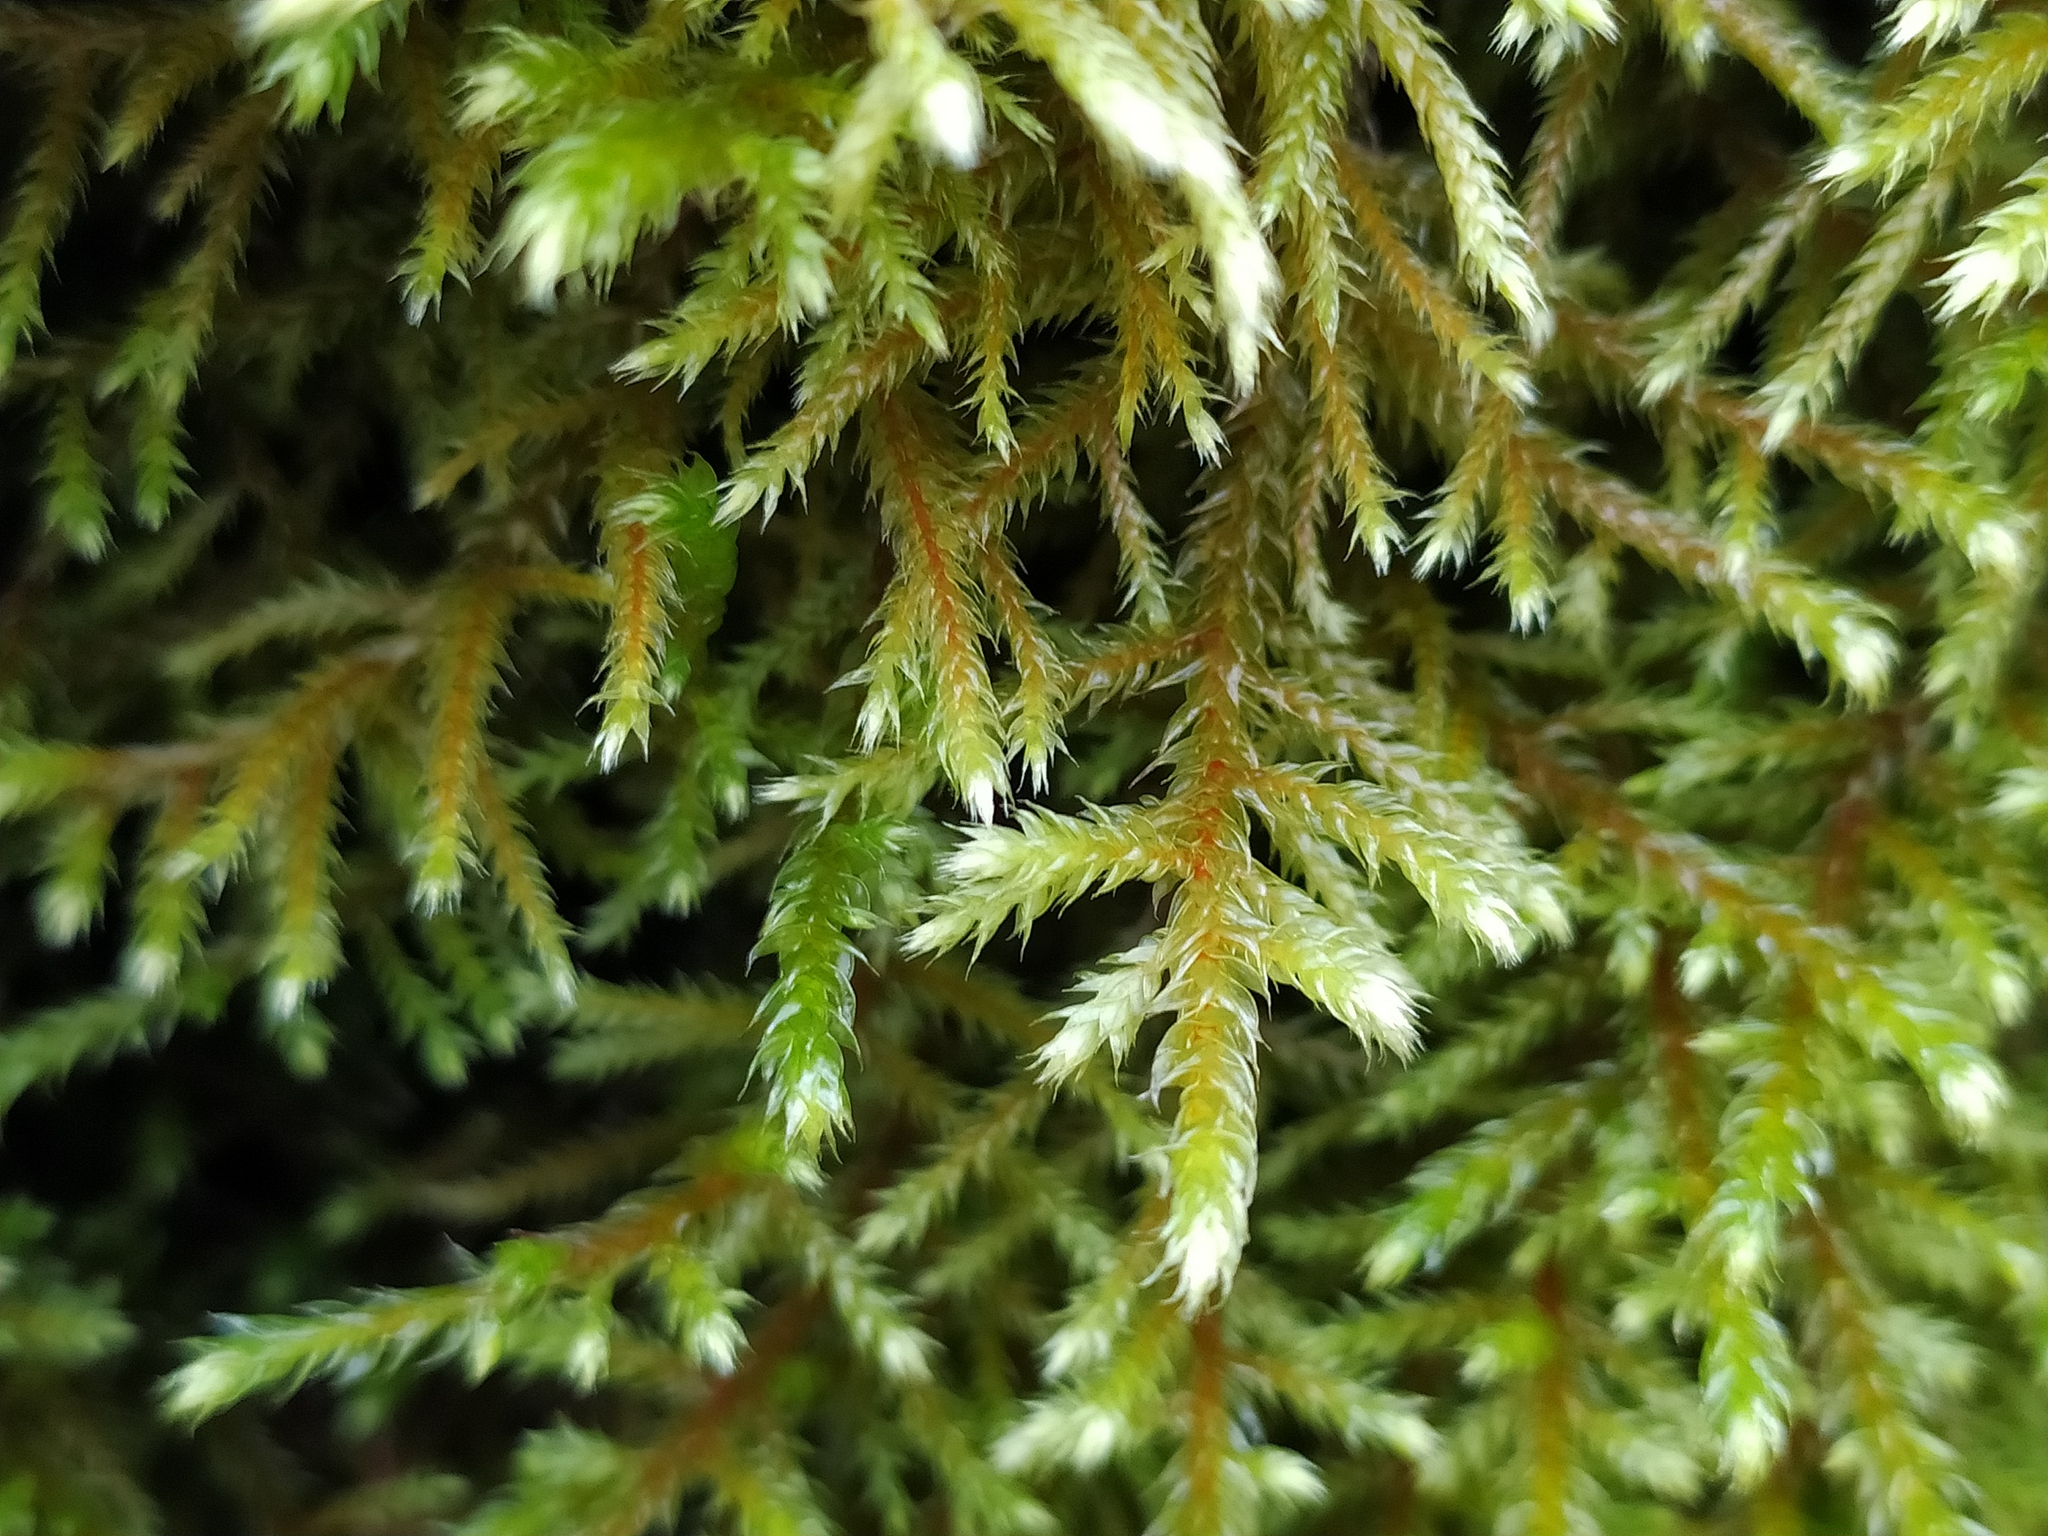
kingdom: Plantae
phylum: Bryophyta
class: Bryopsida
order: Hypnales
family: Antitrichiaceae
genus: Antitrichia
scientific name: Antitrichia curtipendula
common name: Pendulous wing-moss
